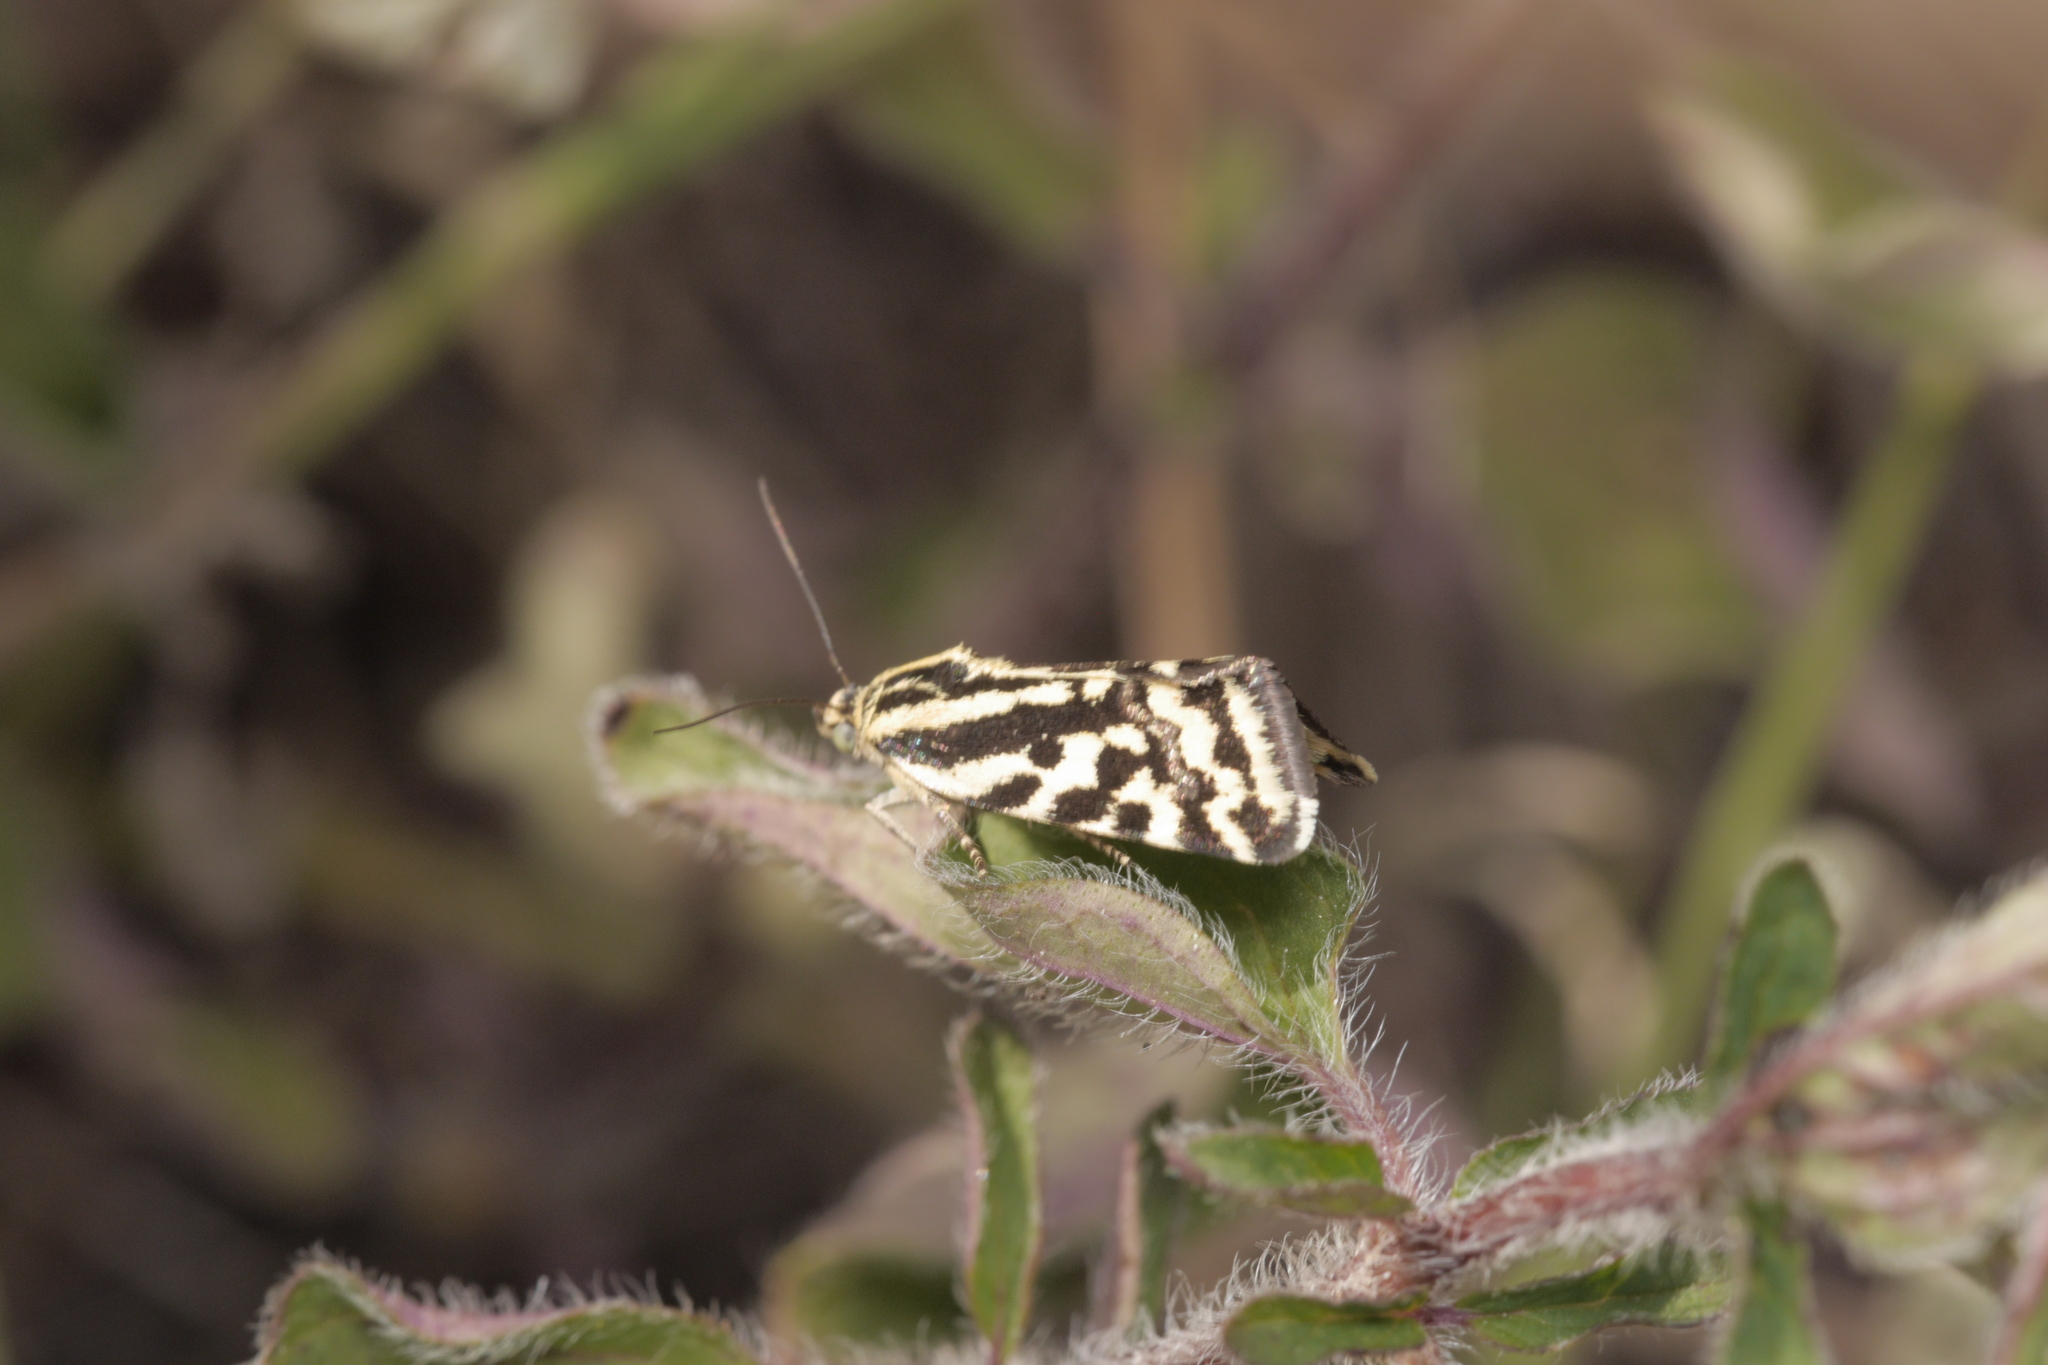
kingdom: Animalia
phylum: Arthropoda
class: Insecta
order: Lepidoptera
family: Noctuidae
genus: Acontia
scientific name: Acontia trabealis
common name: Spotted sulphur
